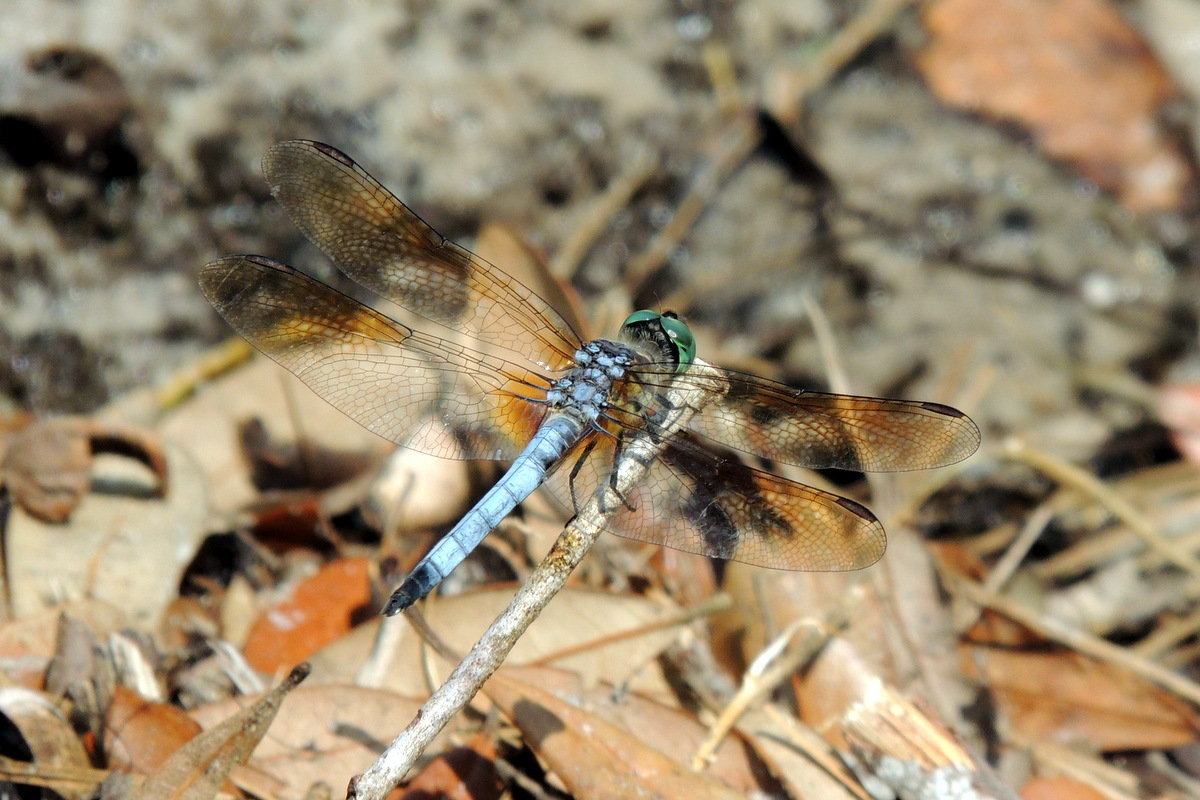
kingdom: Animalia
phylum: Arthropoda
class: Insecta
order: Odonata
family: Libellulidae
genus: Pachydiplax
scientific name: Pachydiplax longipennis
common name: Blue dasher
